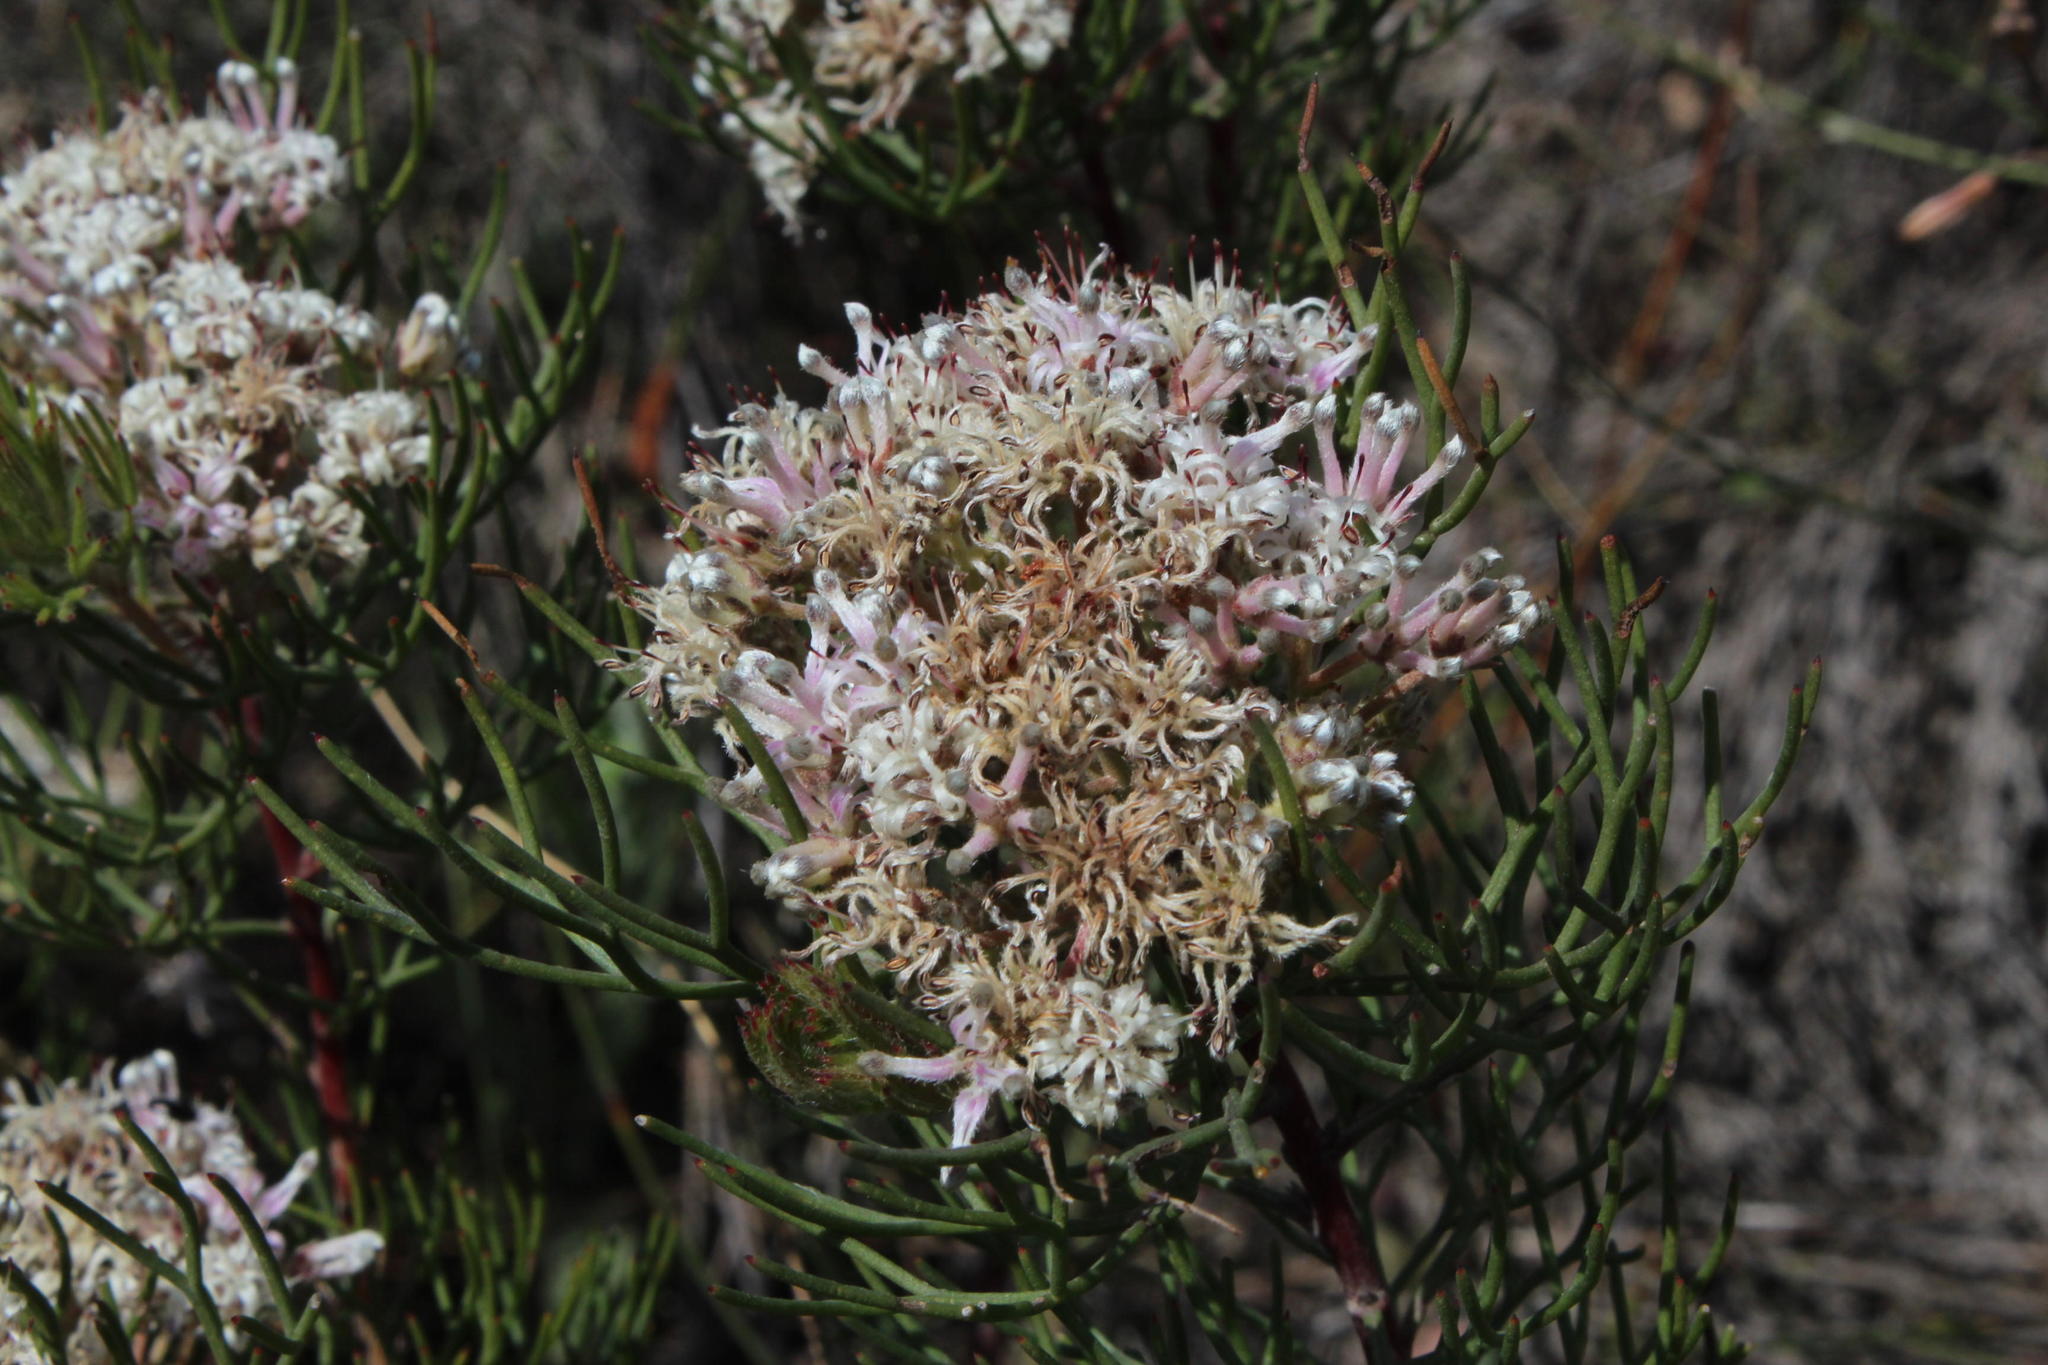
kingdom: Plantae
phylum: Tracheophyta
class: Magnoliopsida
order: Proteales
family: Proteaceae
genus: Serruria
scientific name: Serruria fasciflora
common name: Common pin spiderhead
